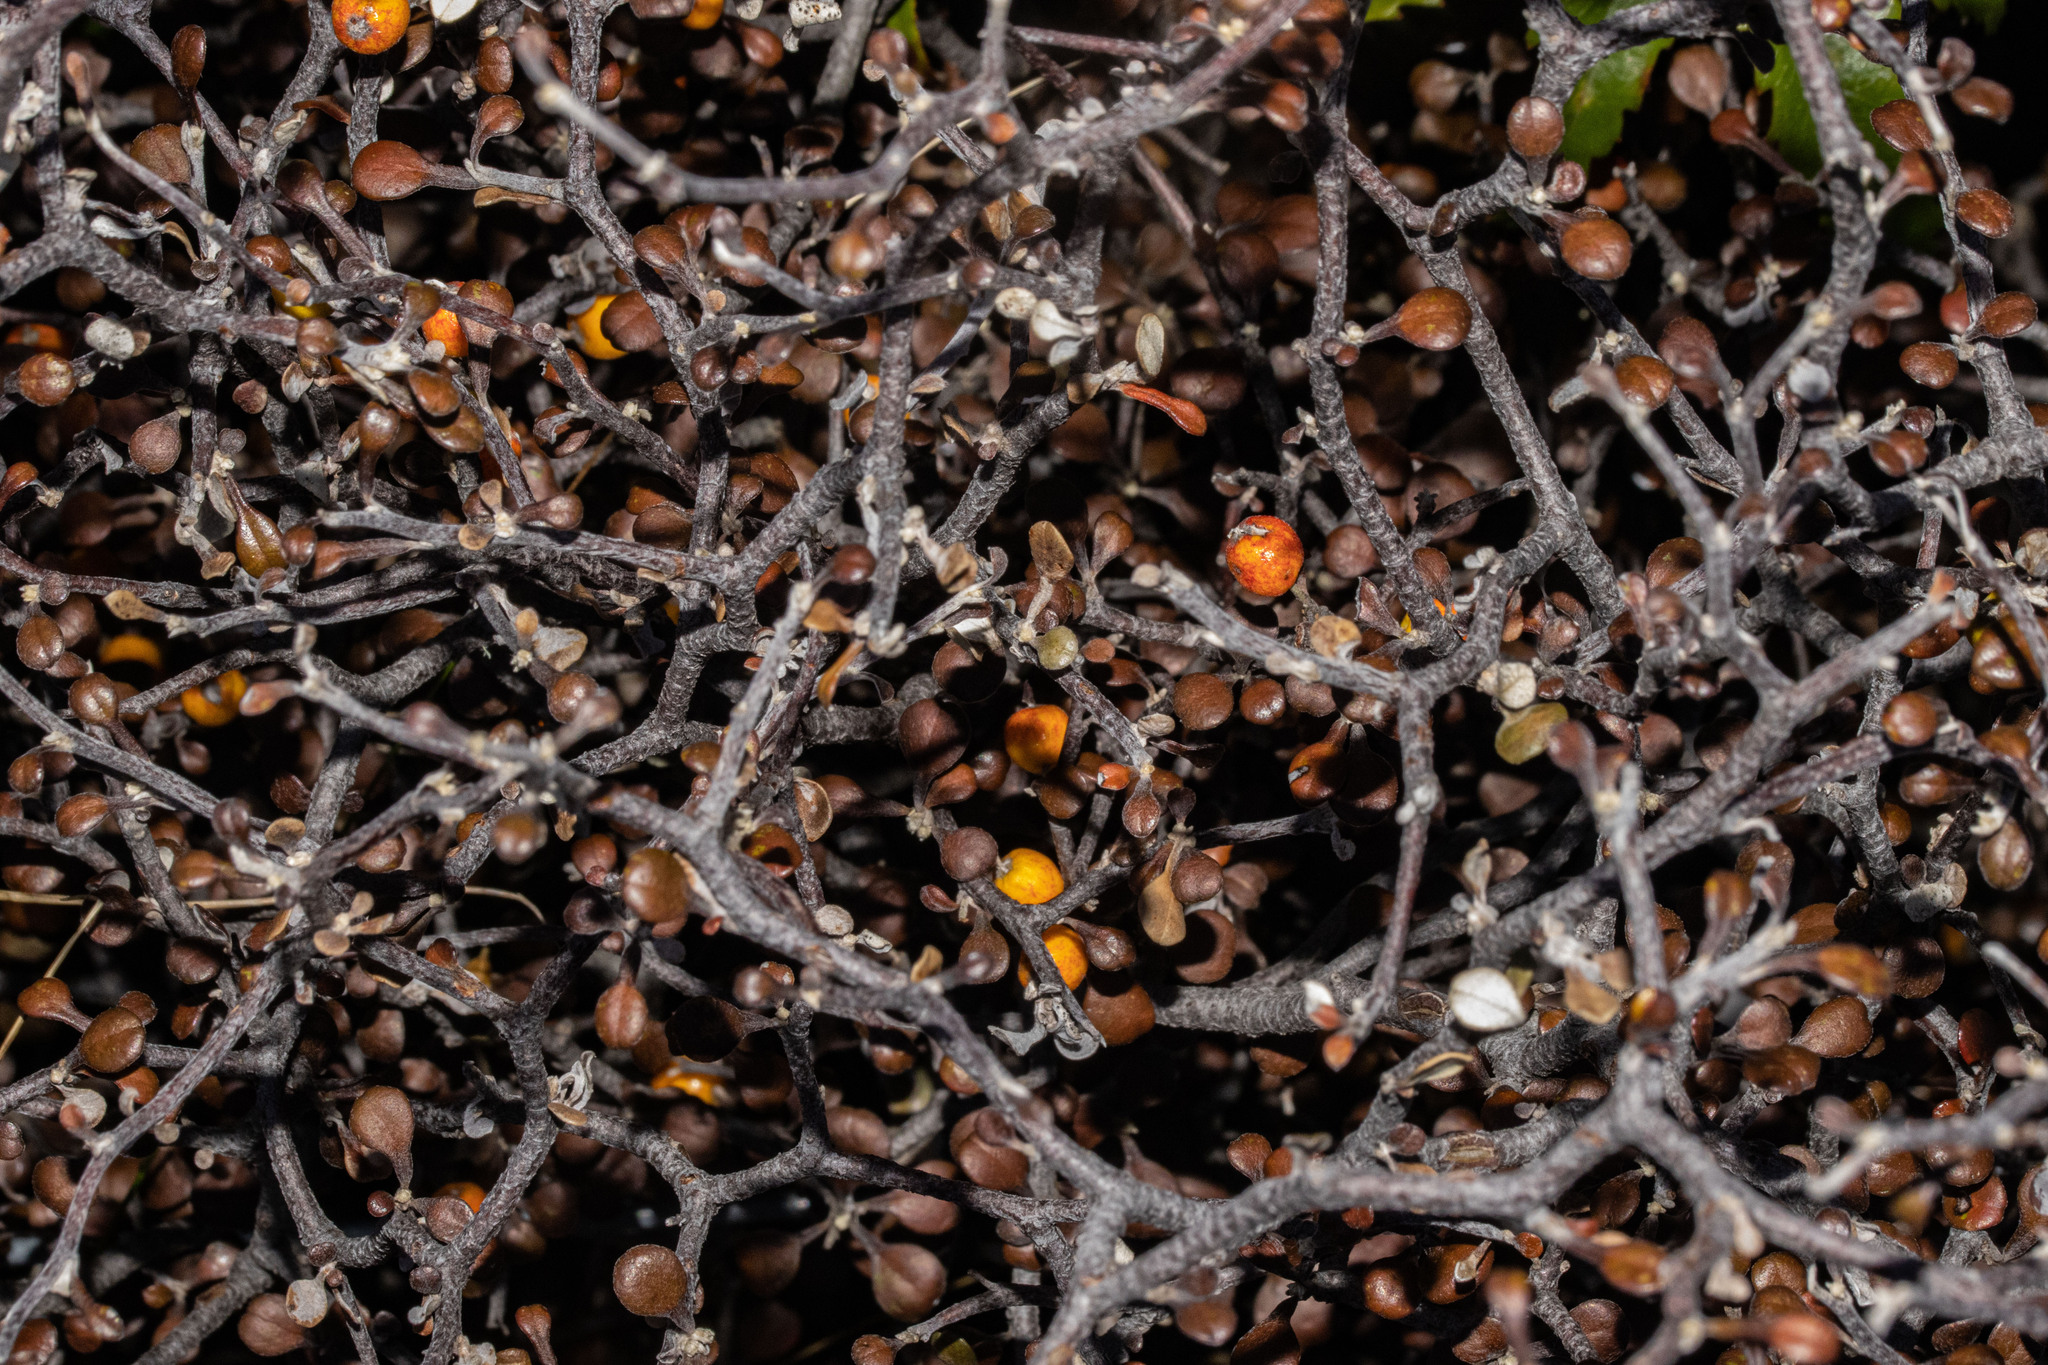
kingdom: Plantae
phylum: Tracheophyta
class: Magnoliopsida
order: Asterales
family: Argophyllaceae
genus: Corokia
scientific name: Corokia cotoneaster
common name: Wire nettingbush
